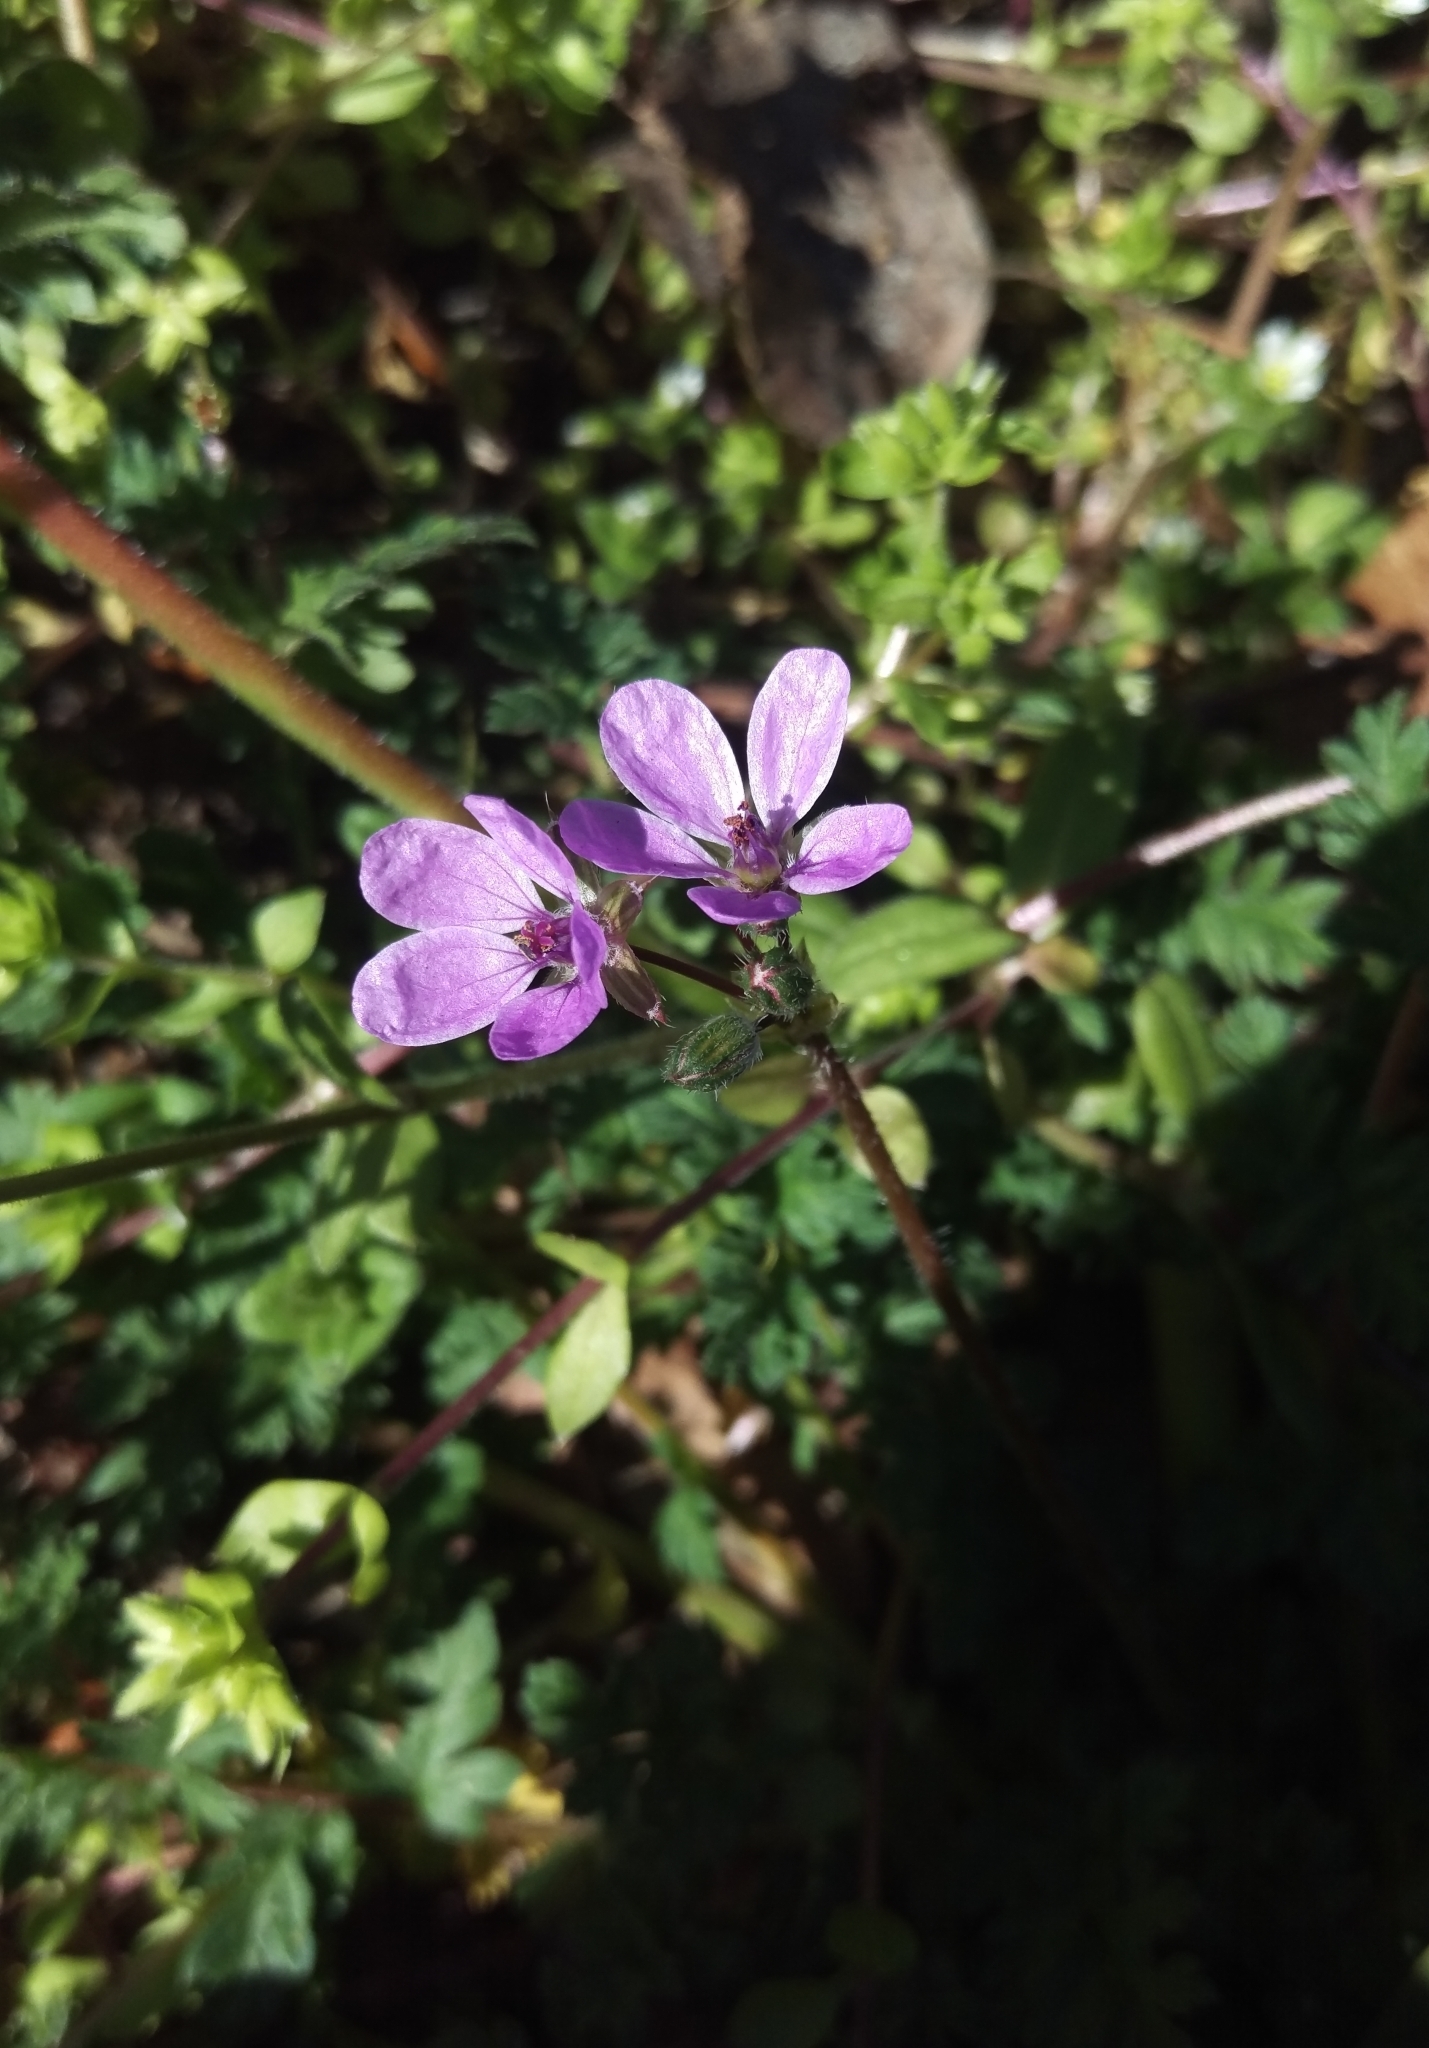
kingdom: Plantae
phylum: Tracheophyta
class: Magnoliopsida
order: Geraniales
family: Geraniaceae
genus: Erodium
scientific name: Erodium cicutarium
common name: Common stork's-bill
